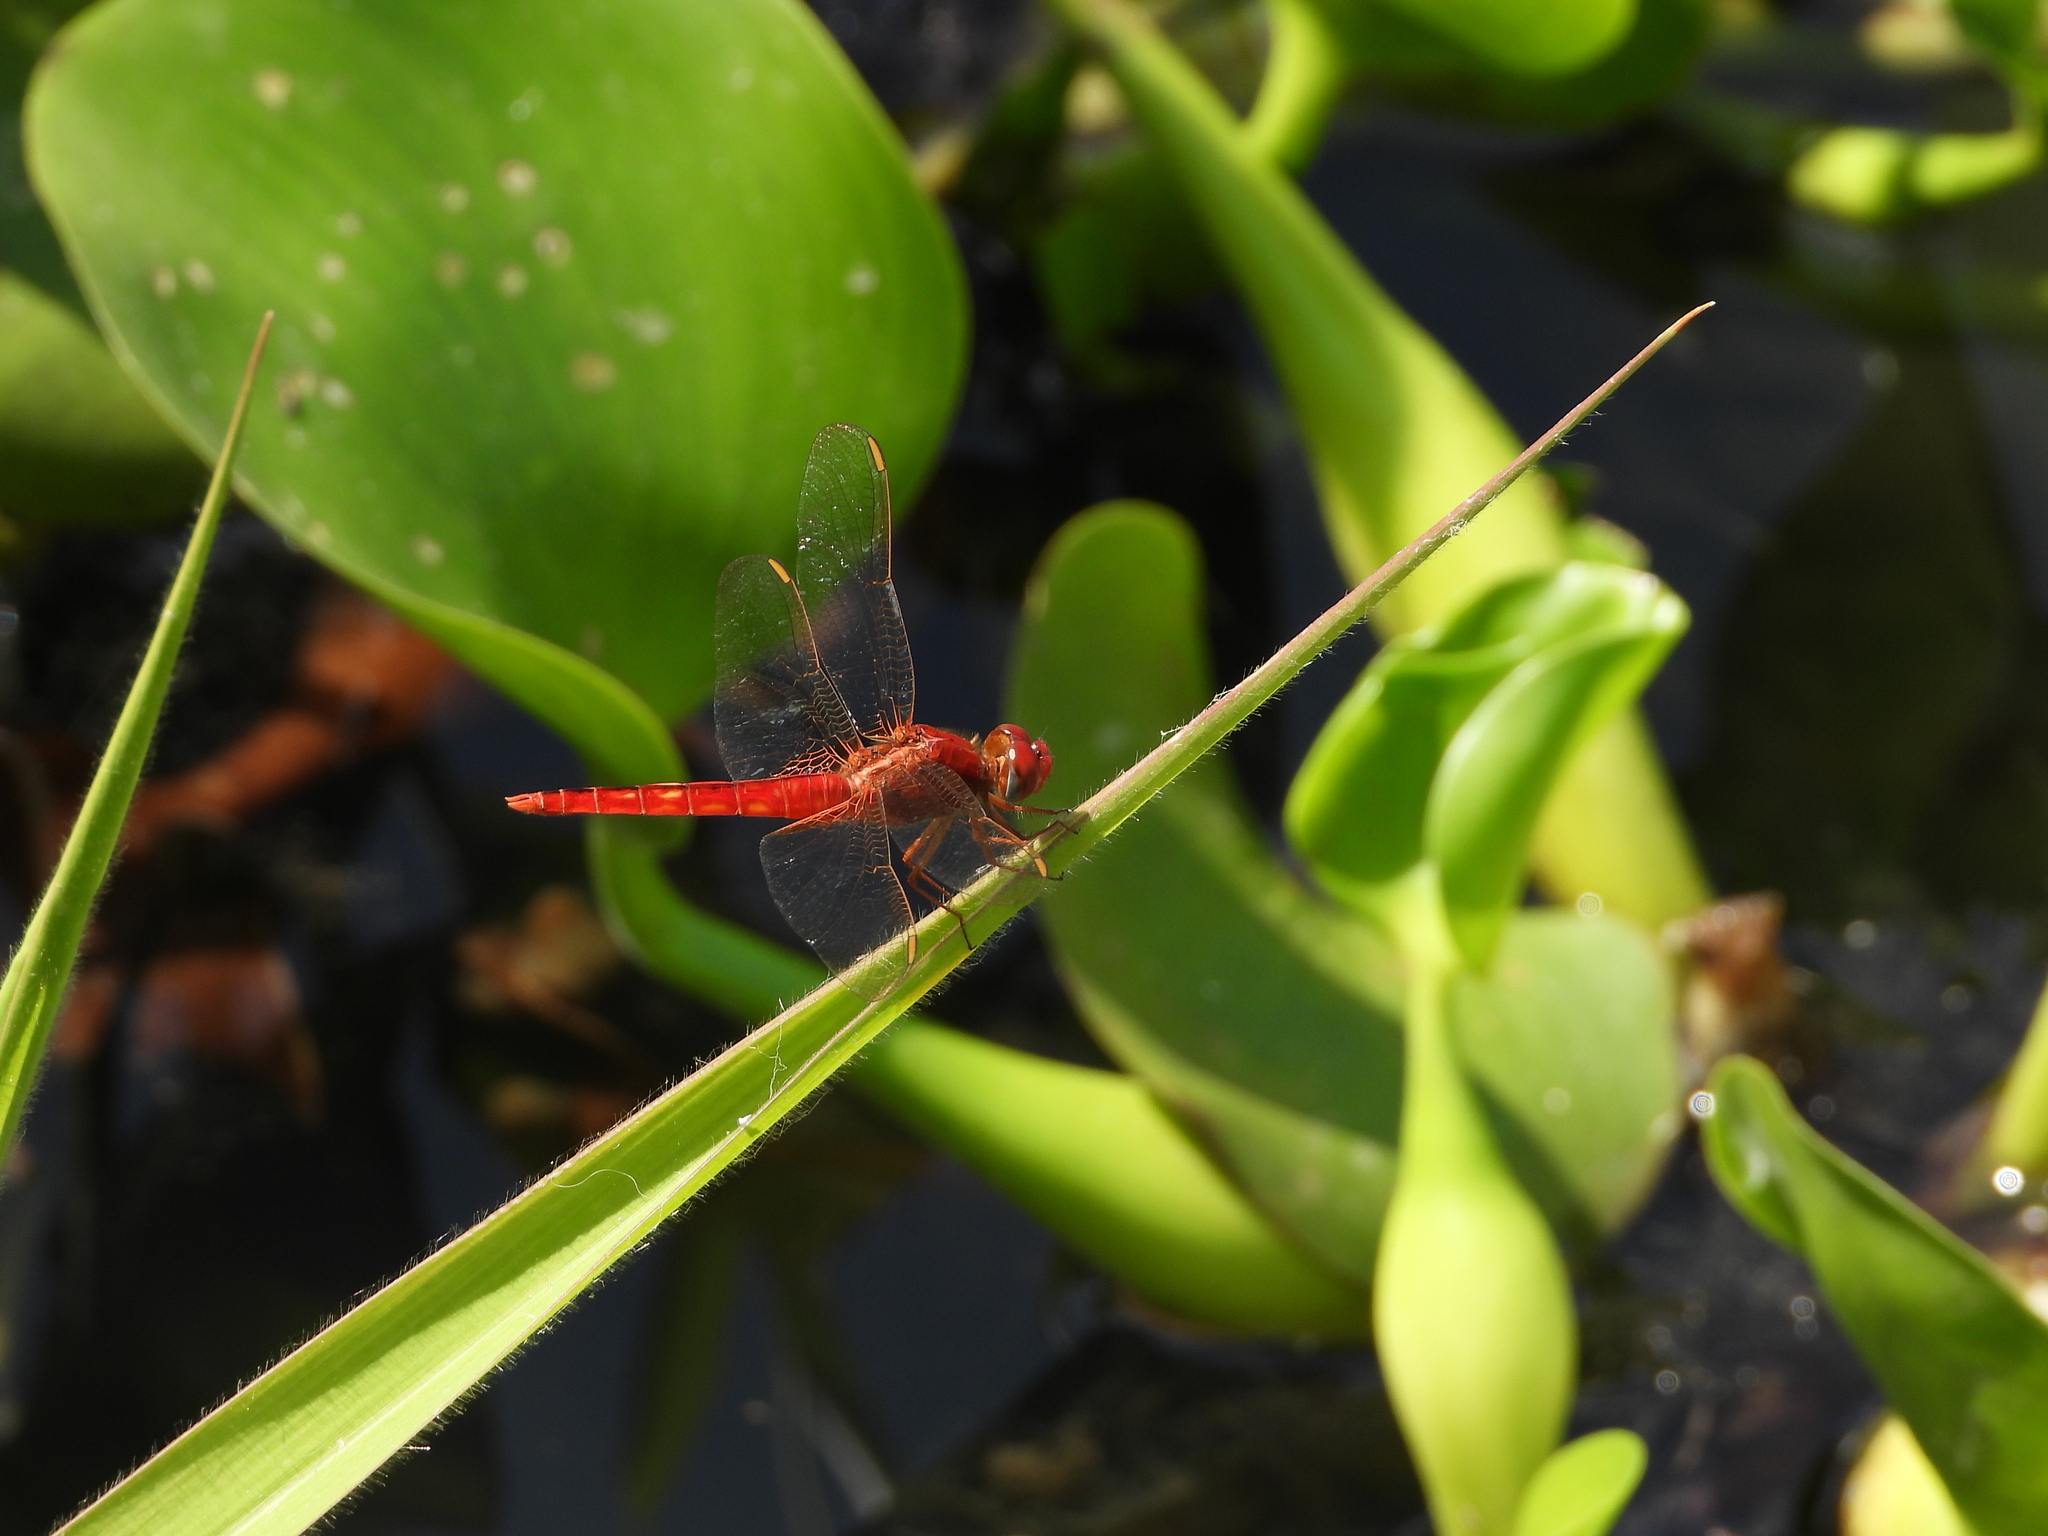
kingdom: Animalia
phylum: Arthropoda
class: Insecta
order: Odonata
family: Libellulidae
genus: Crocothemis
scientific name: Crocothemis servilia
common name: Scarlet skimmer
